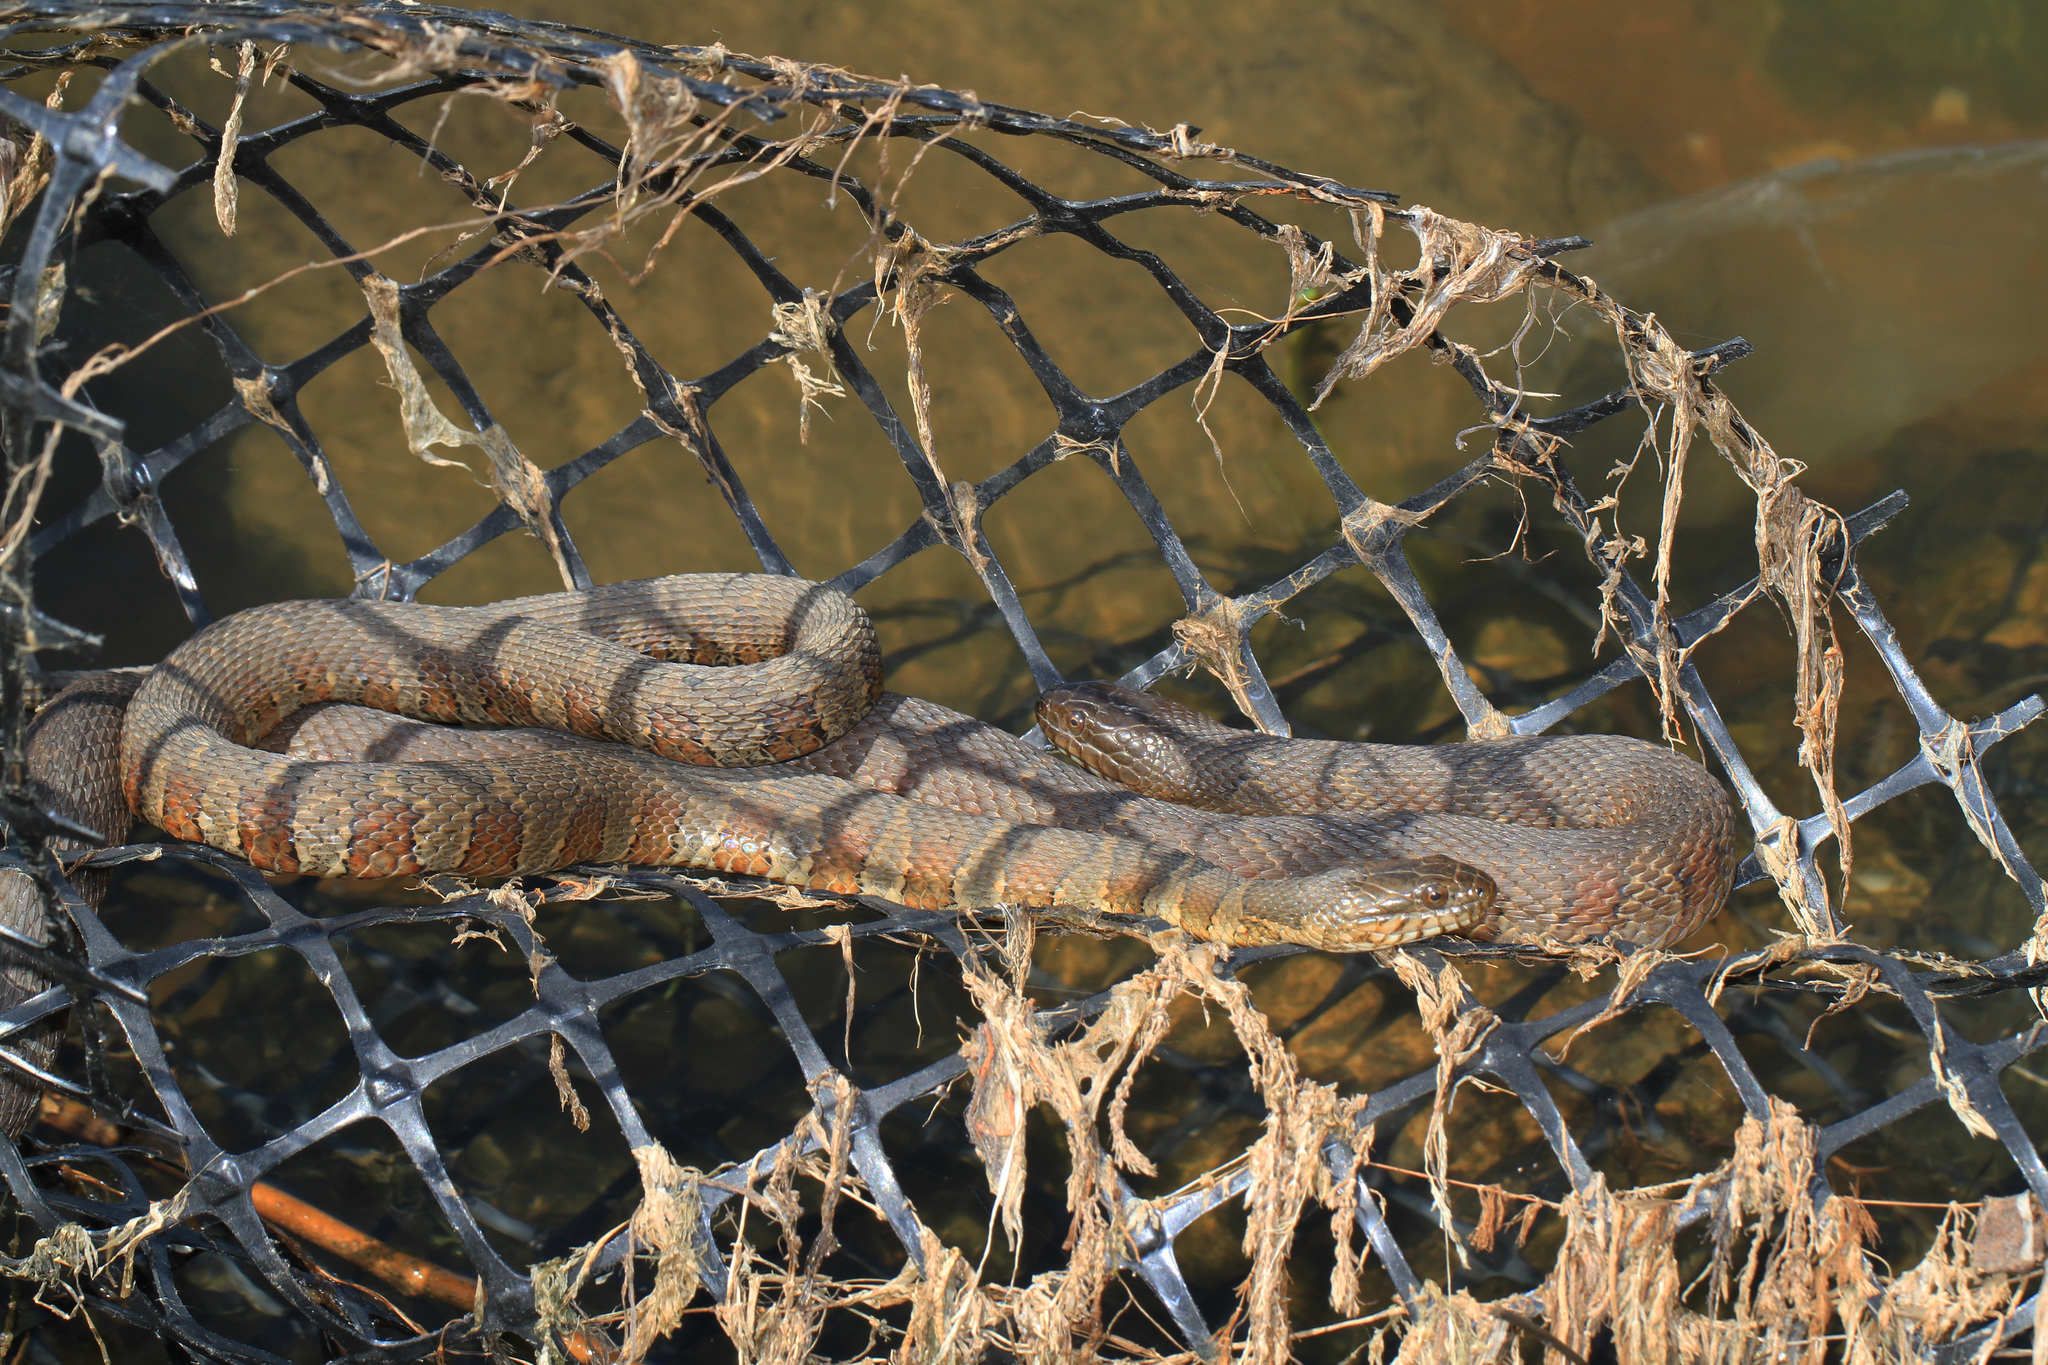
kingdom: Animalia
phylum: Chordata
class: Squamata
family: Colubridae
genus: Nerodia
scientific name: Nerodia sipedon
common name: Northern water snake
